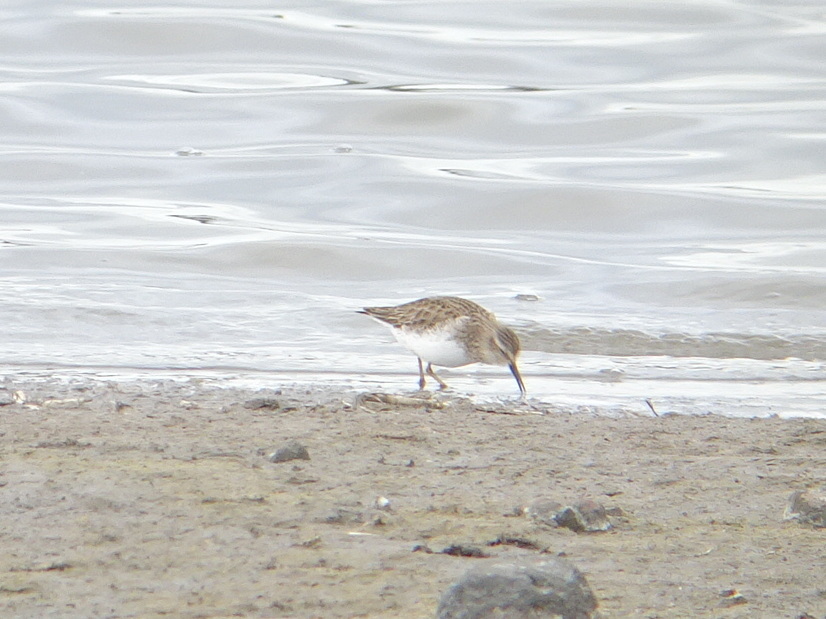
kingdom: Animalia
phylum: Chordata
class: Aves
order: Charadriiformes
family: Scolopacidae
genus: Calidris
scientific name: Calidris minutilla
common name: Least sandpiper
